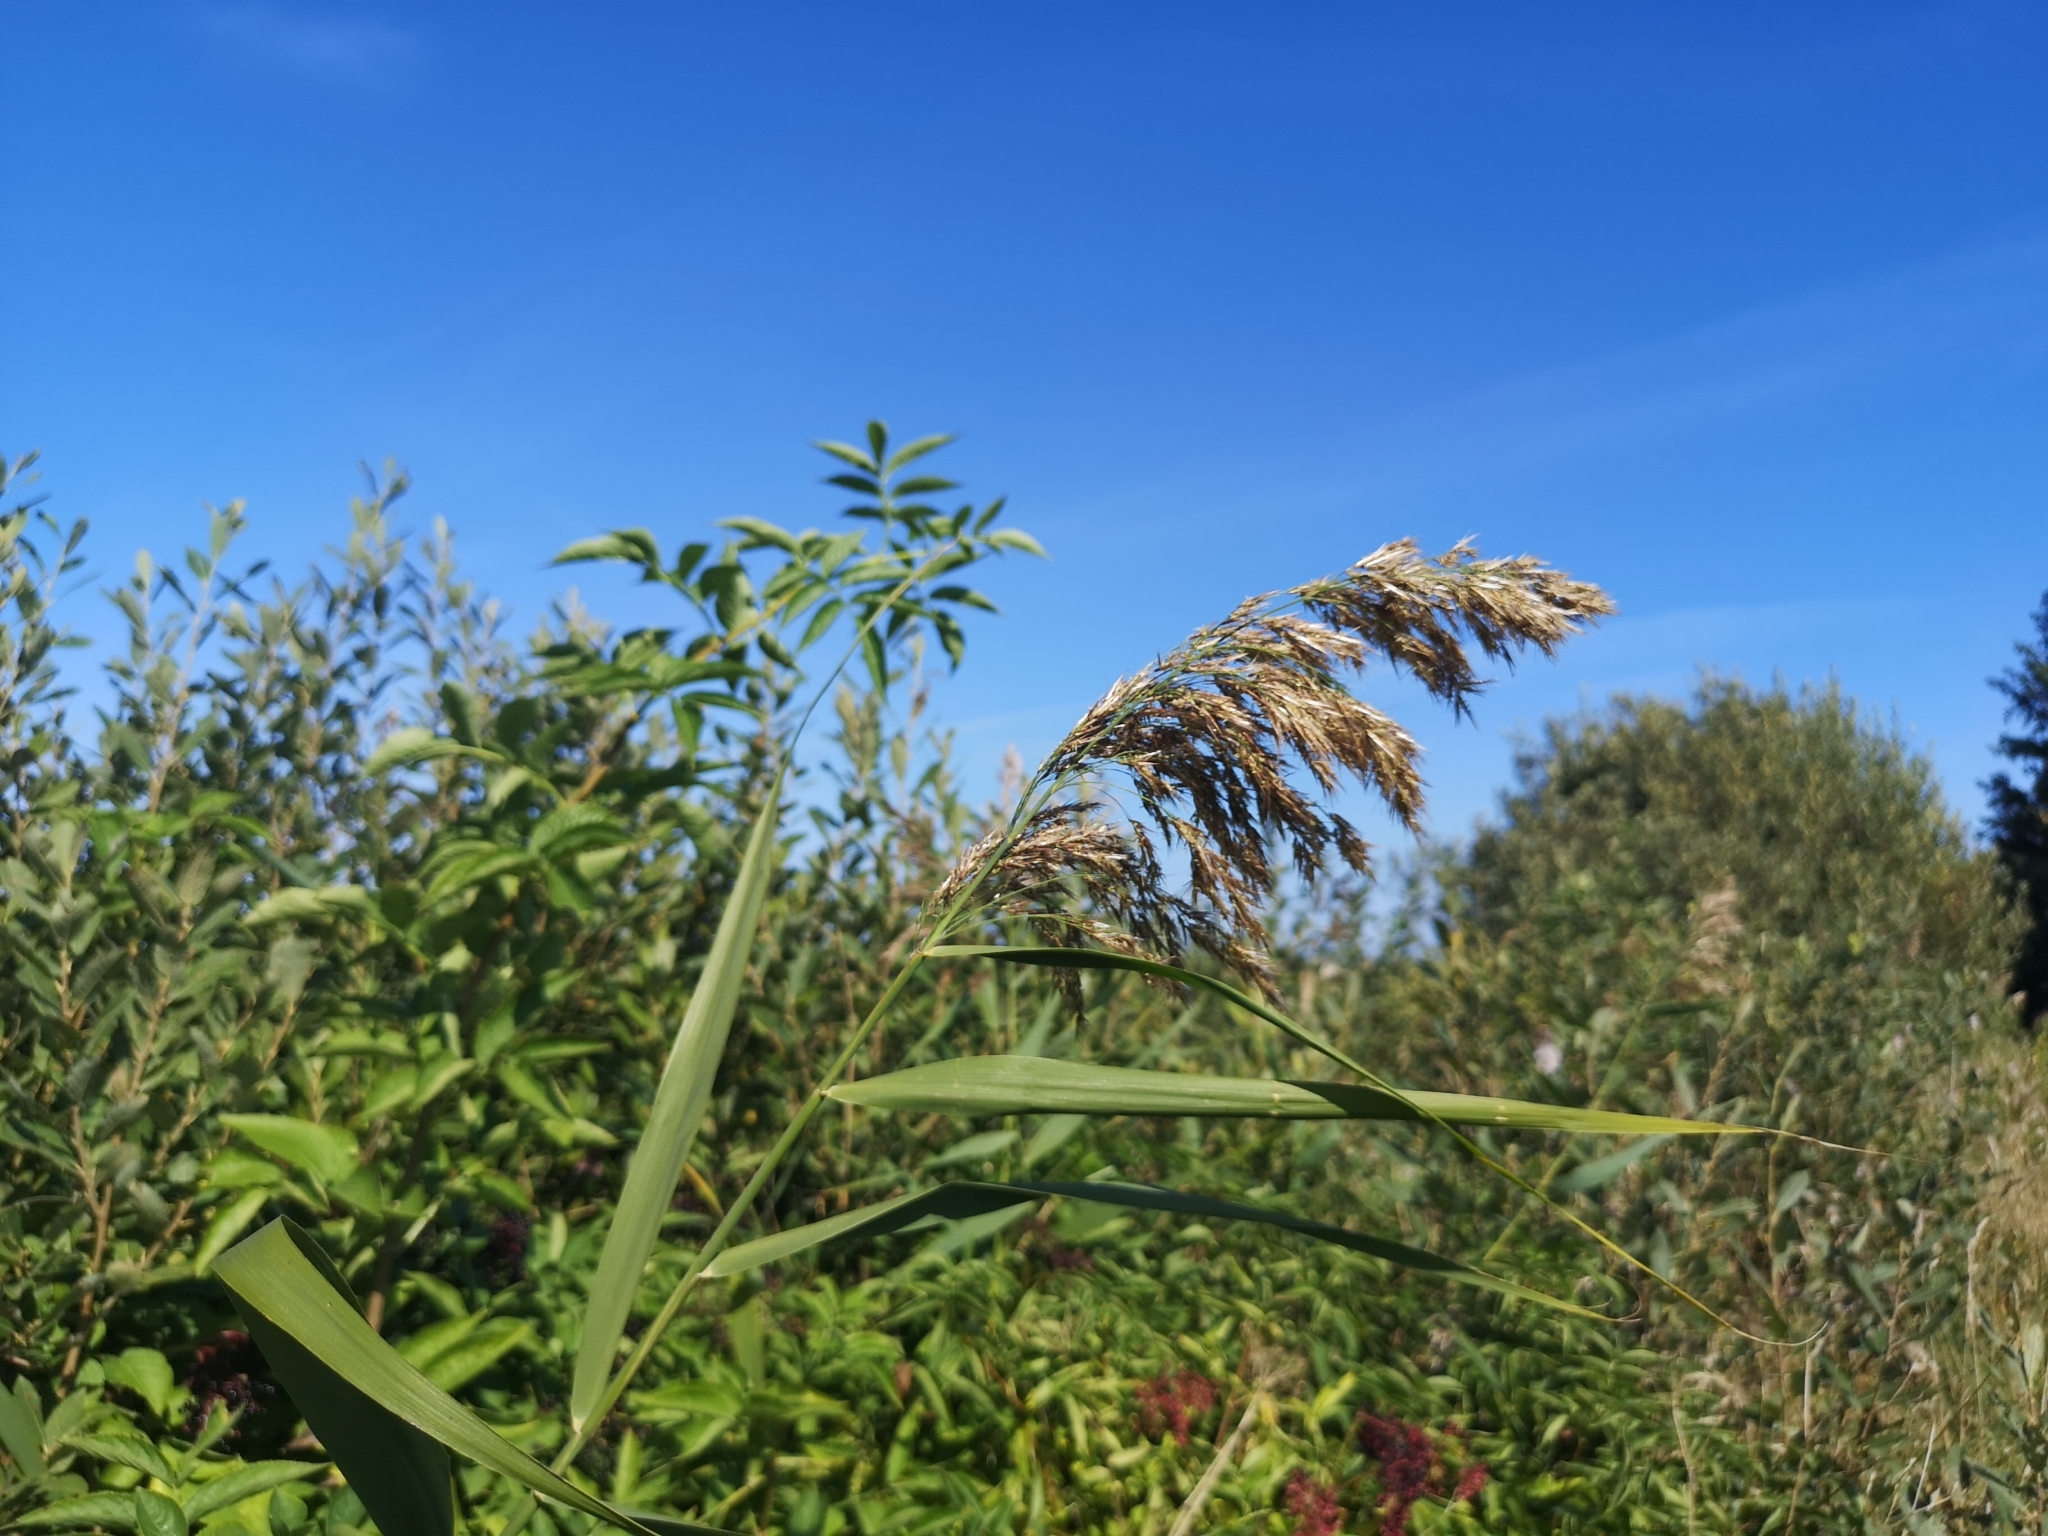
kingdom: Plantae
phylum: Tracheophyta
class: Liliopsida
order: Poales
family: Poaceae
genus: Phragmites
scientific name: Phragmites australis
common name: Common reed
